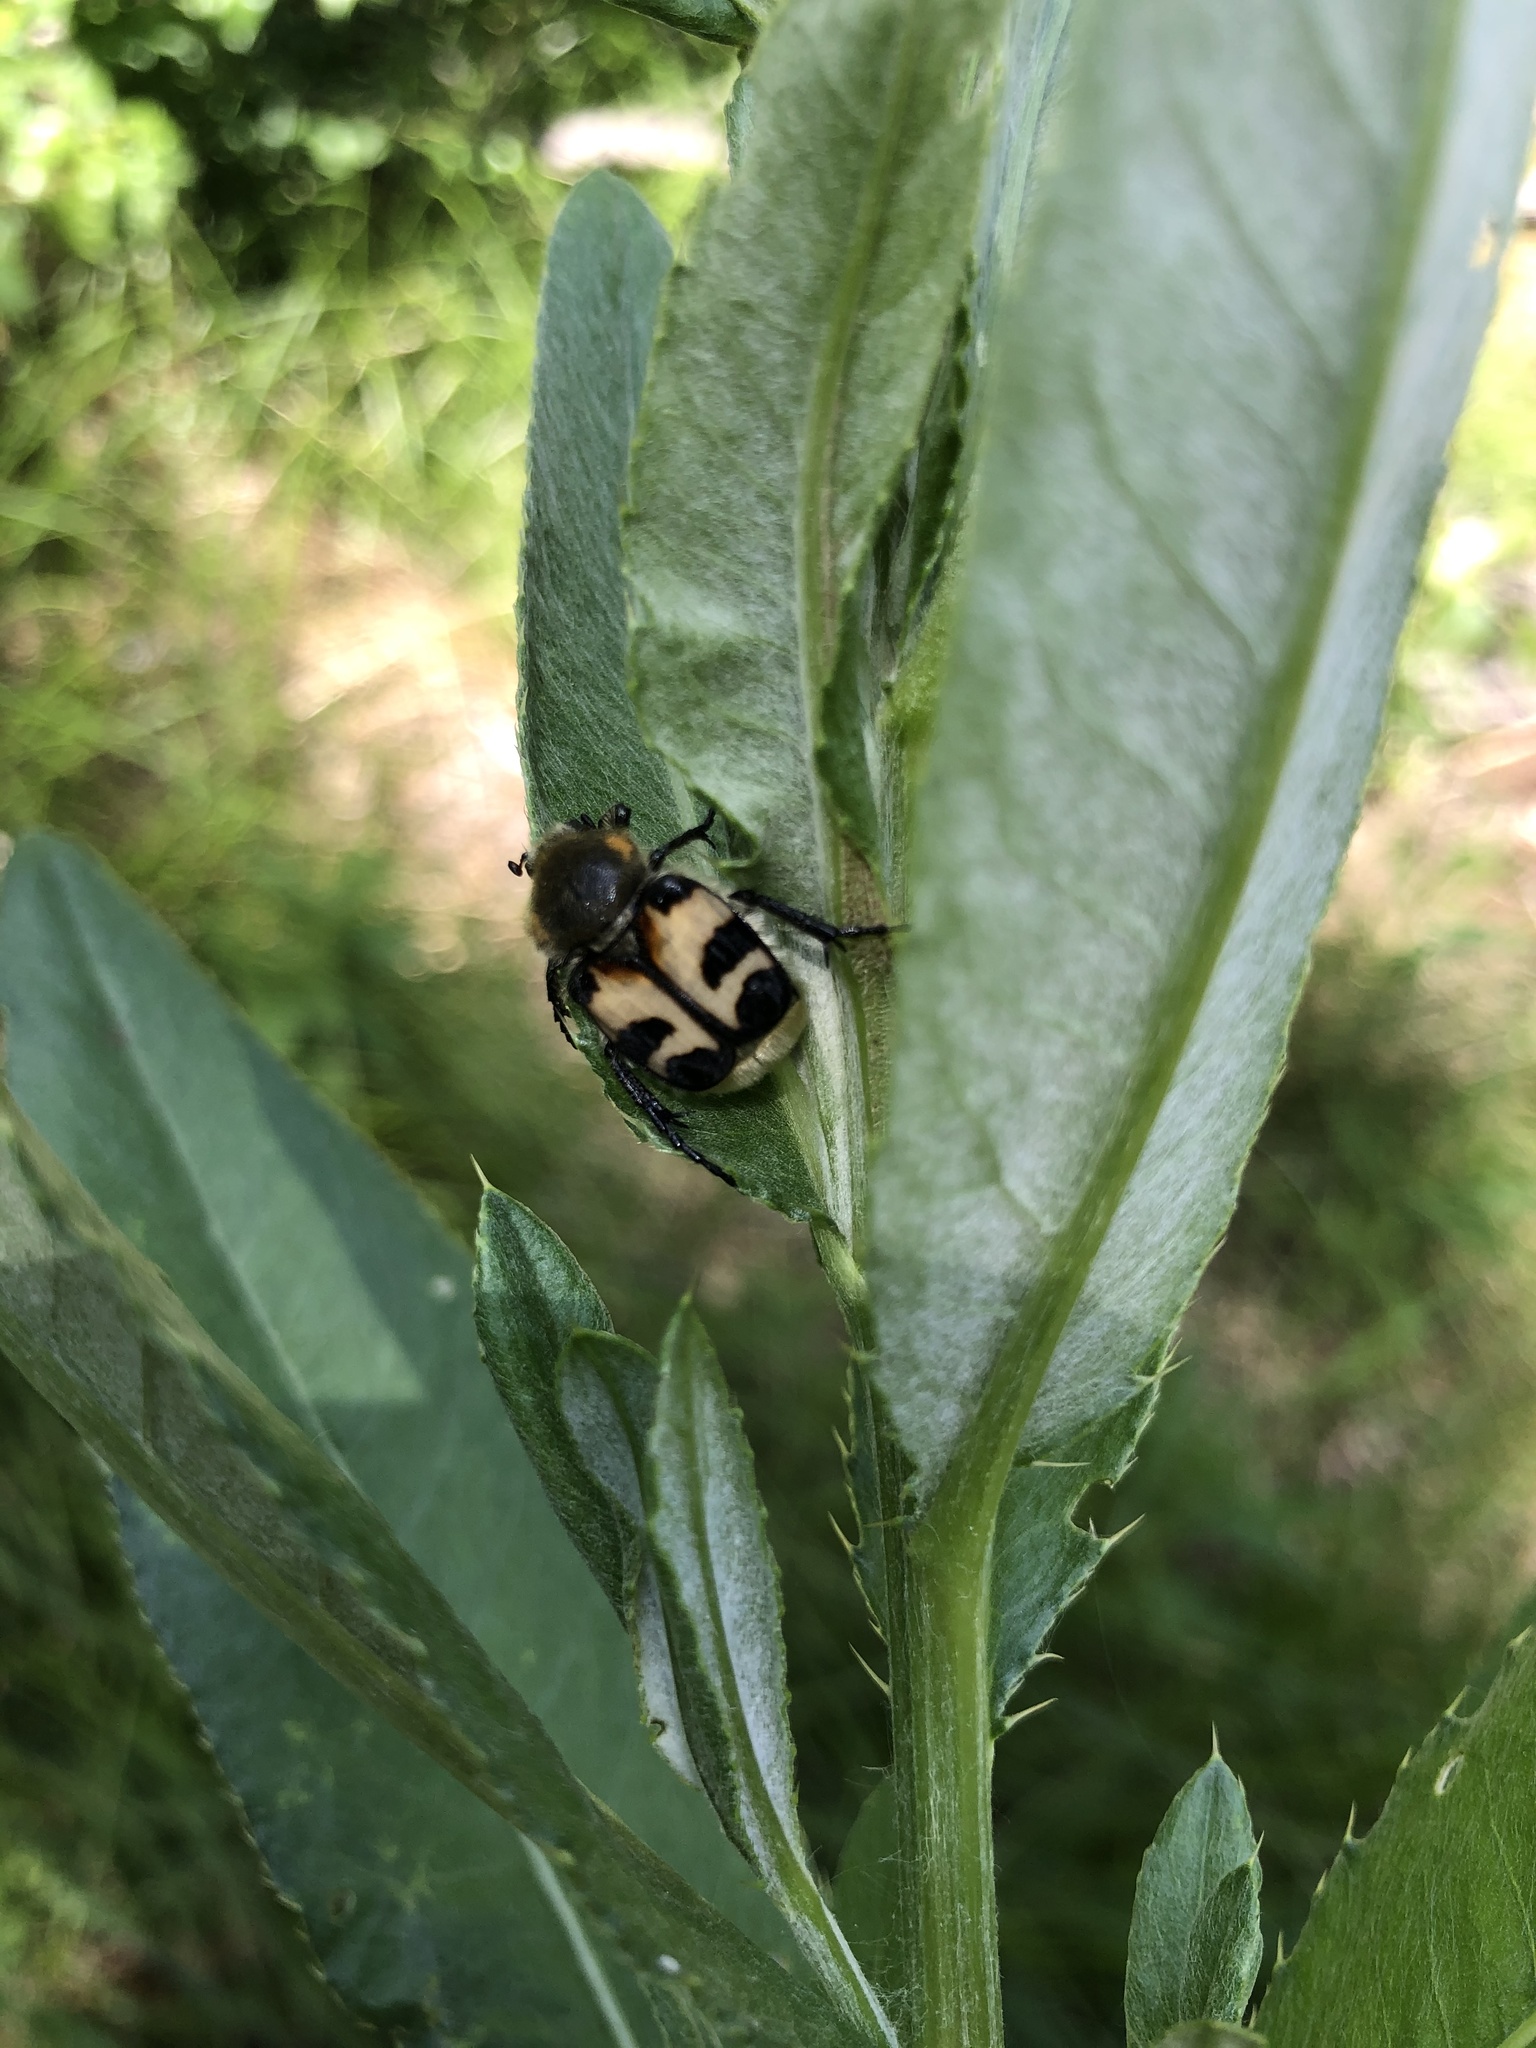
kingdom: Animalia
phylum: Arthropoda
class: Insecta
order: Coleoptera
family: Scarabaeidae
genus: Trichius
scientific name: Trichius fasciatus
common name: Bee beetle
